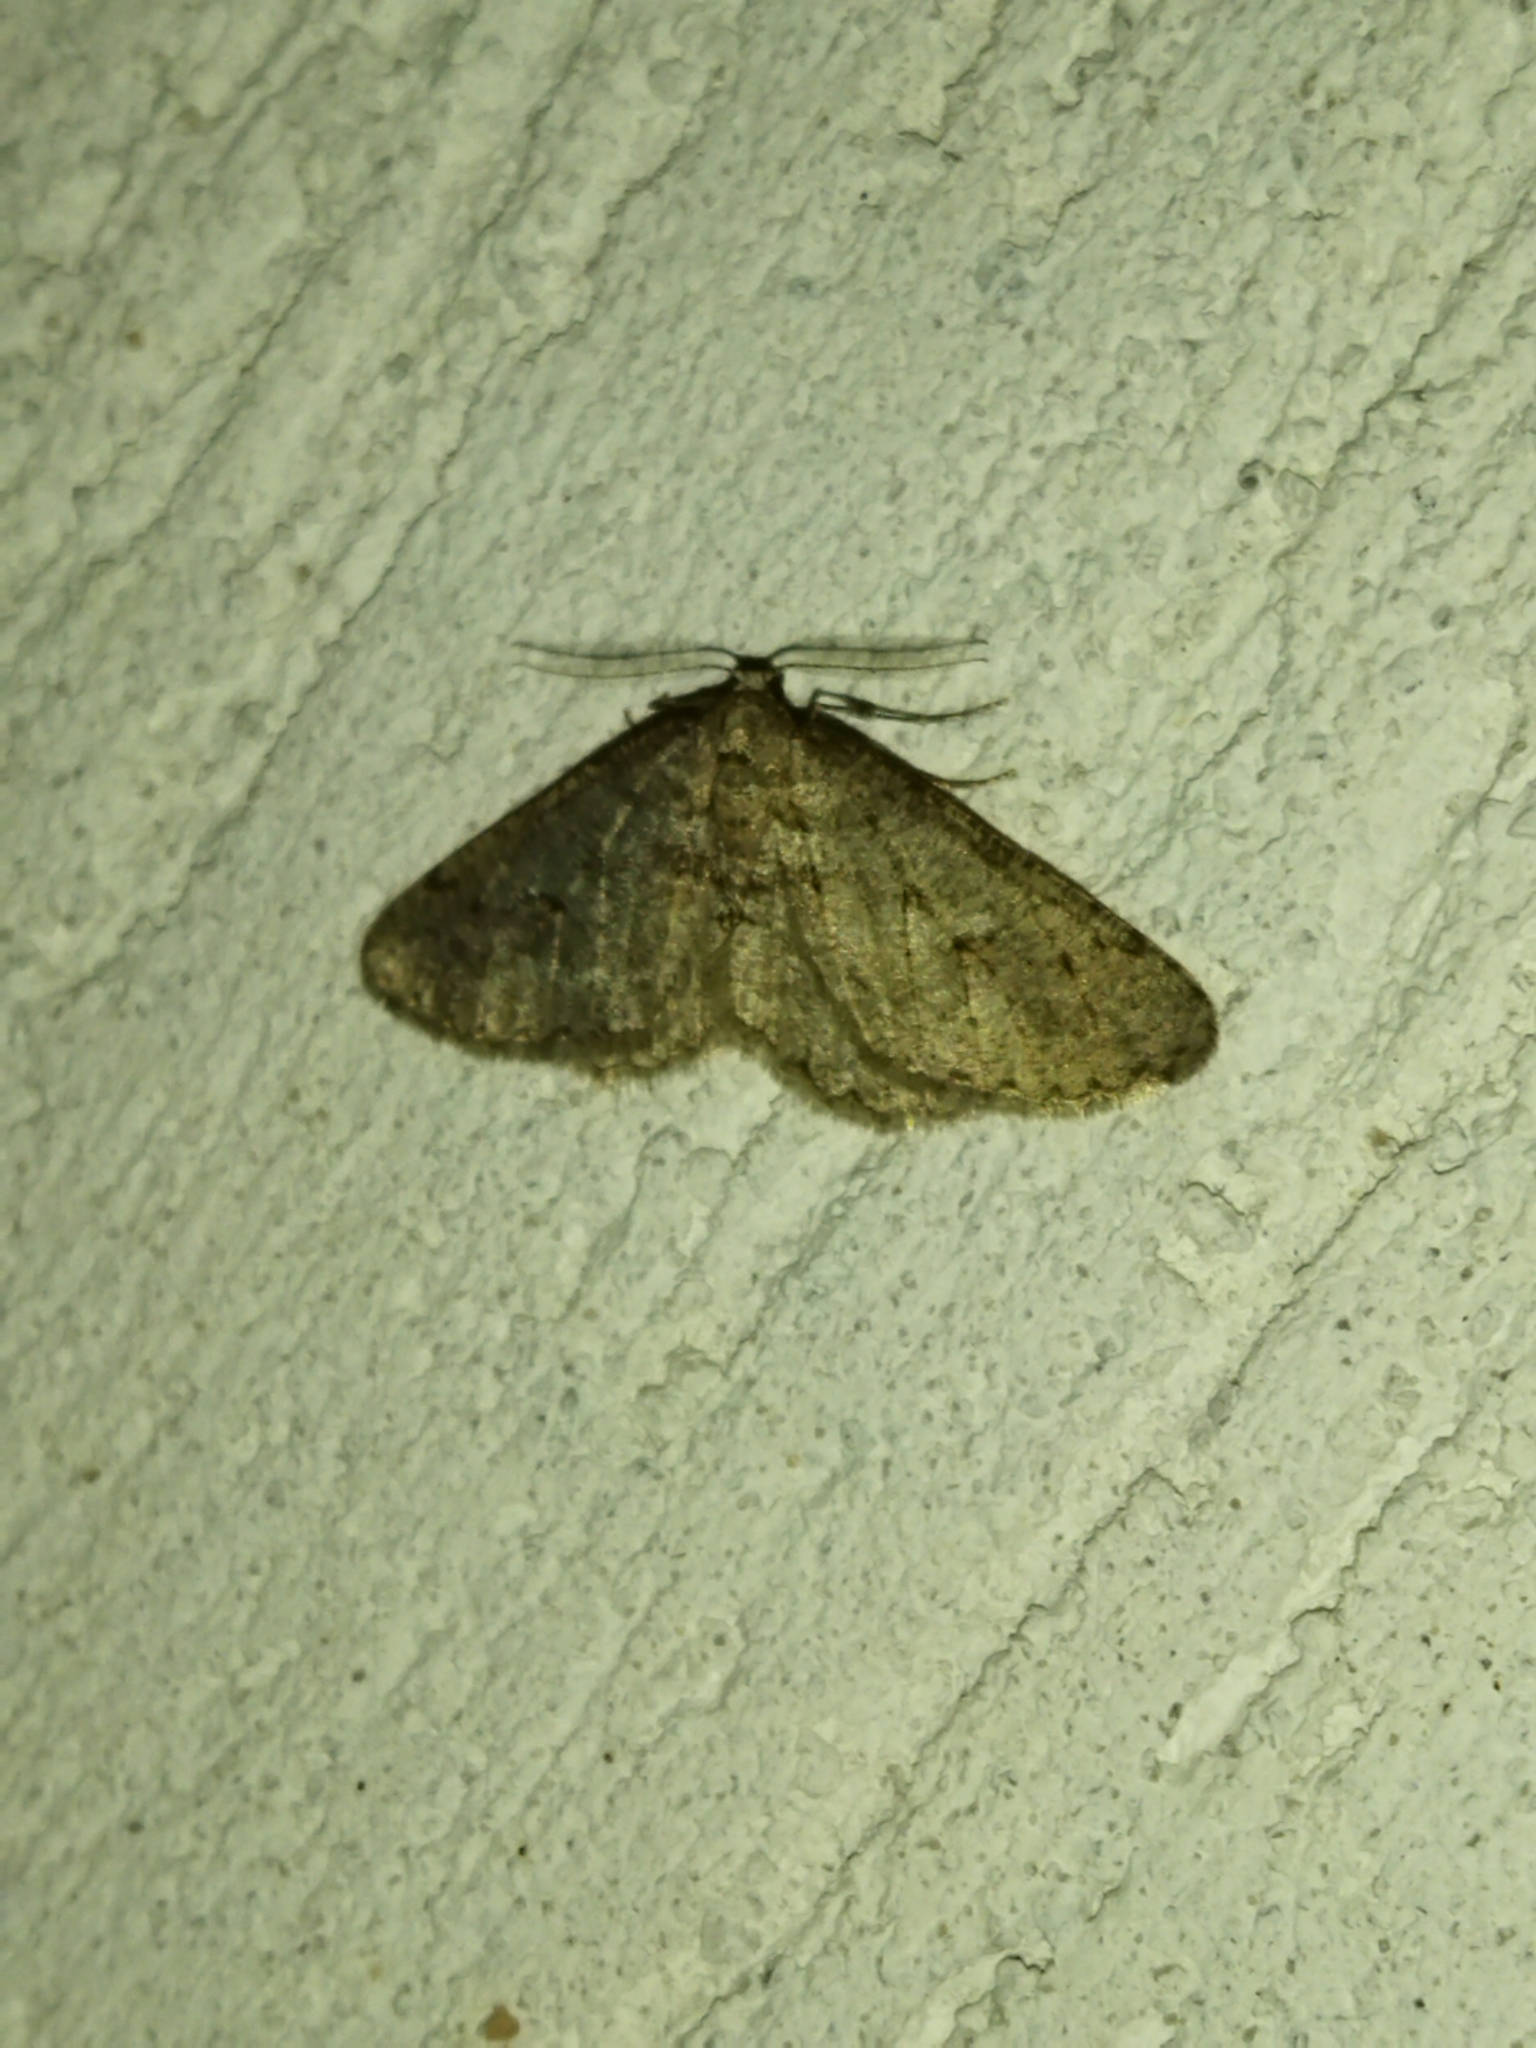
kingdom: Animalia
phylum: Arthropoda
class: Insecta
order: Lepidoptera
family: Geometridae
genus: Agriopis
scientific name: Agriopis bajaria
